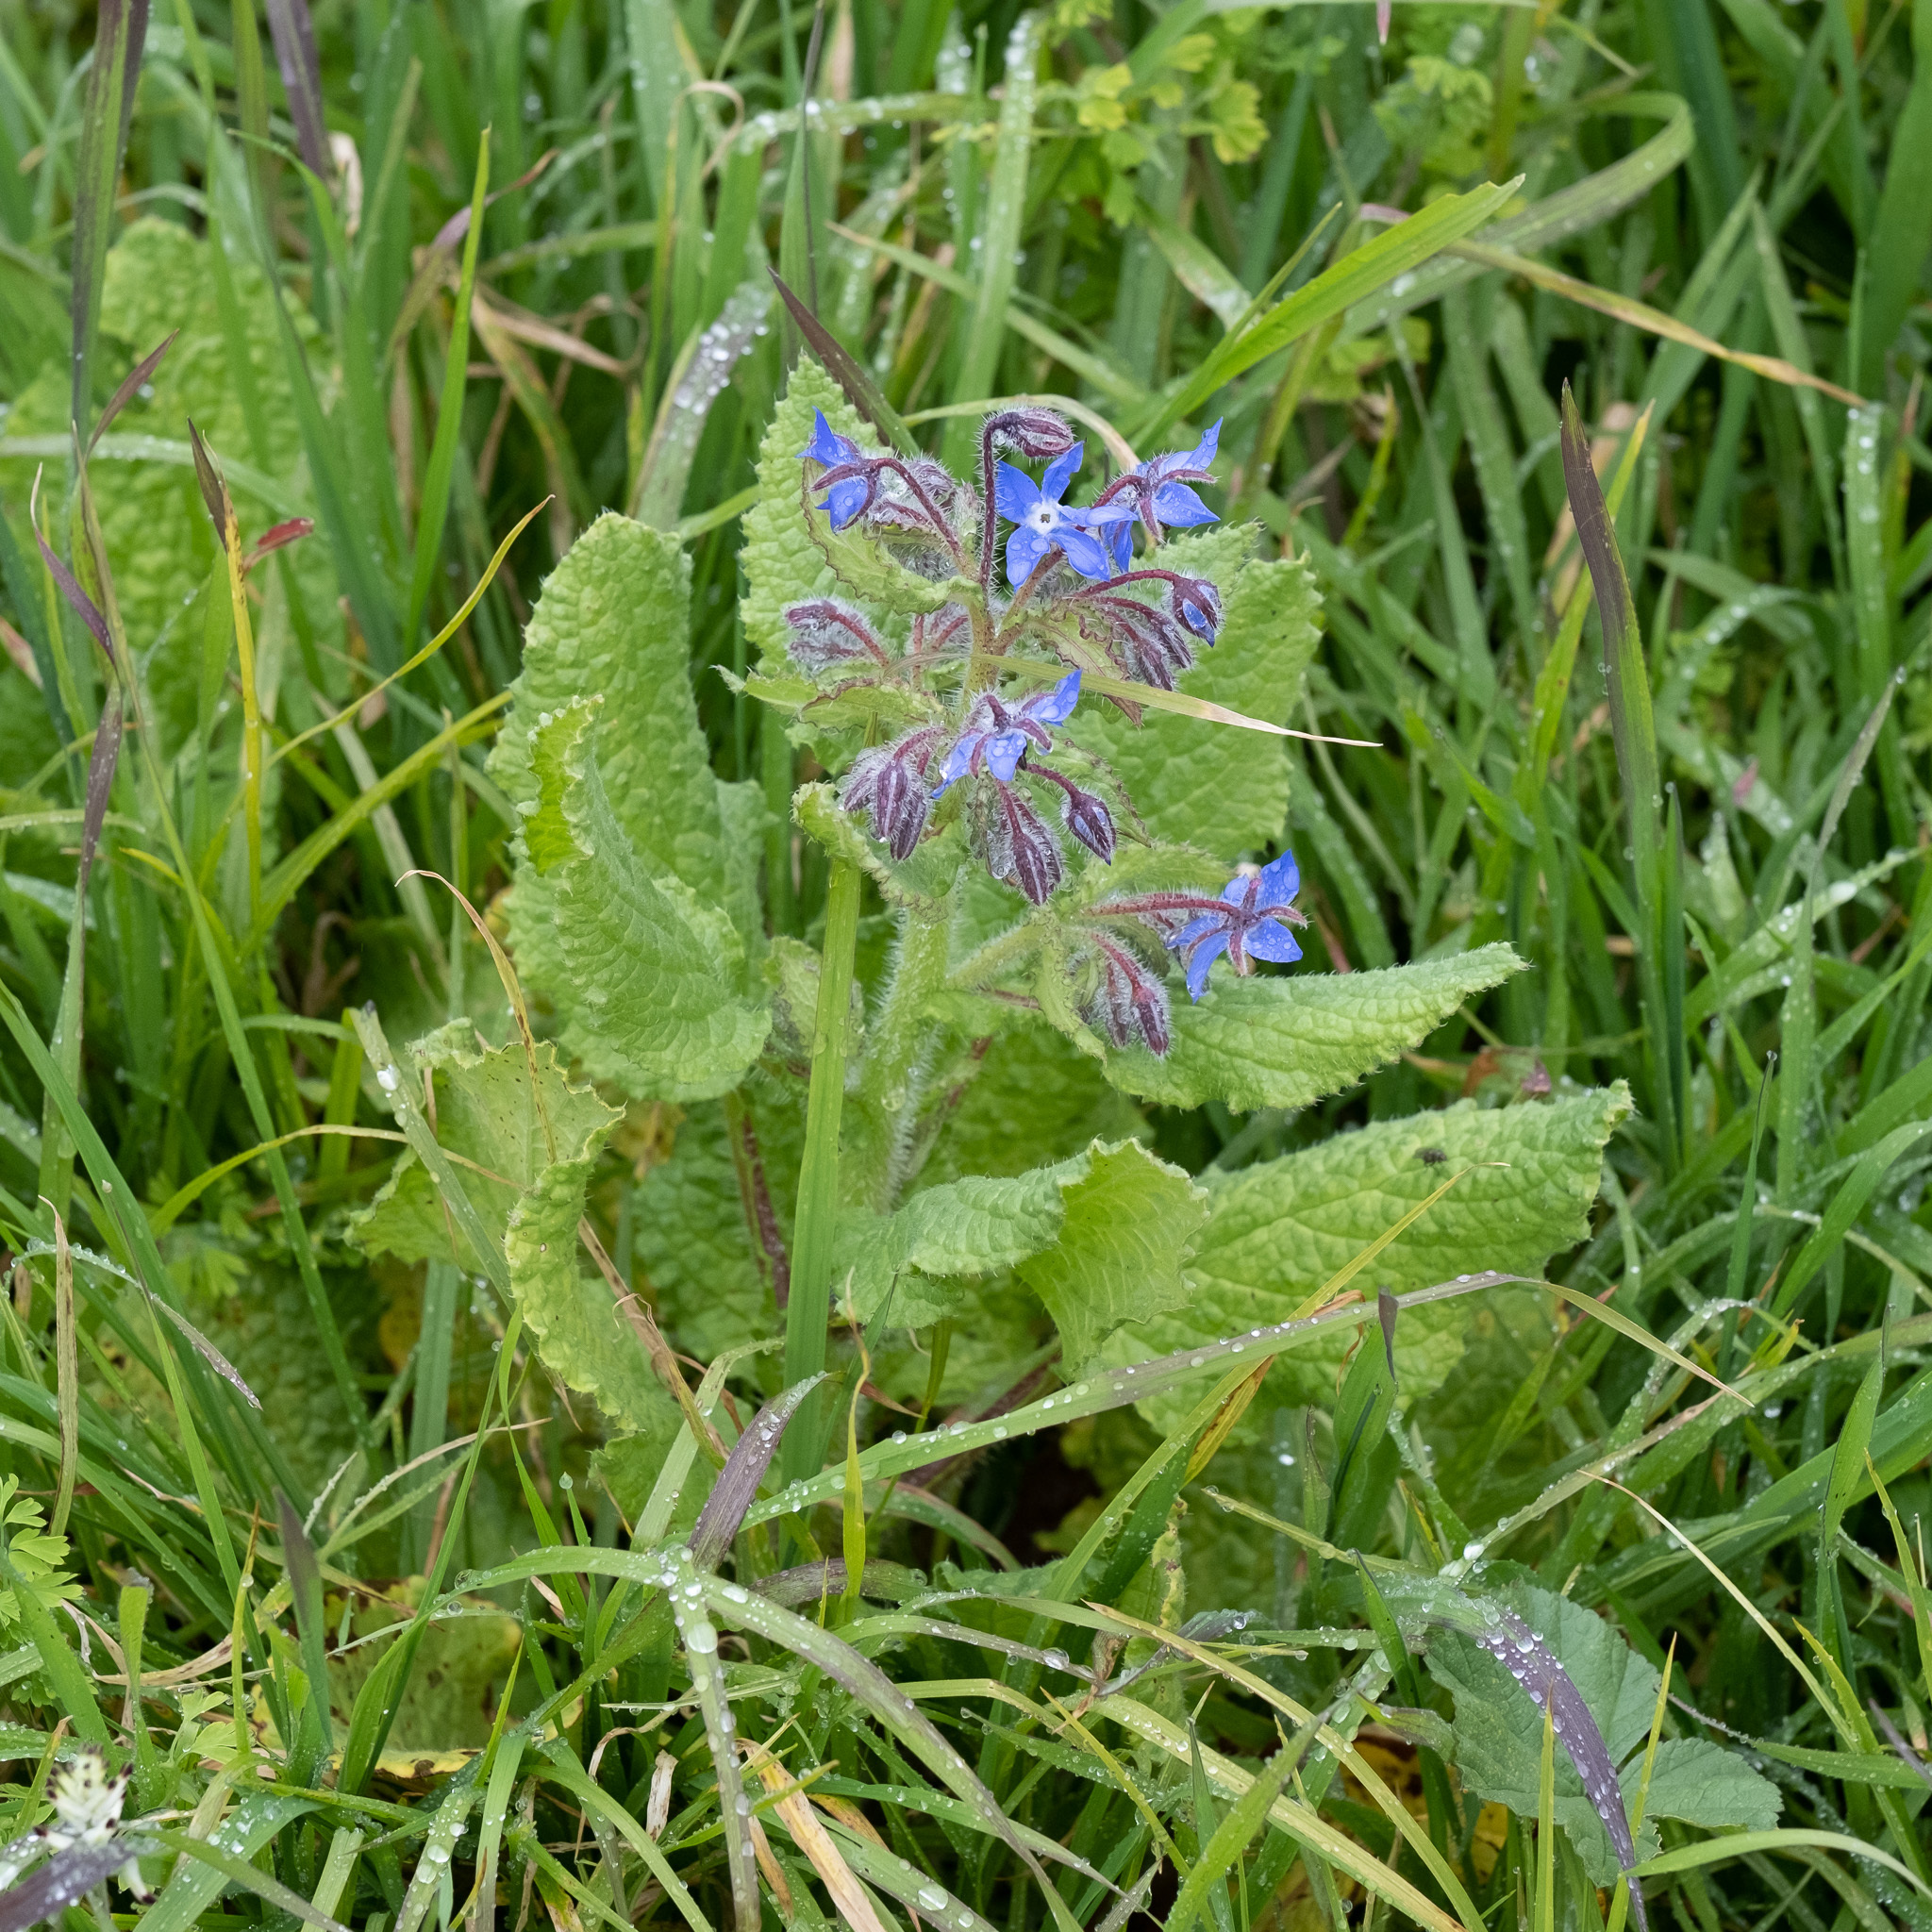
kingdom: Plantae
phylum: Tracheophyta
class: Magnoliopsida
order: Boraginales
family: Boraginaceae
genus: Borago
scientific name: Borago officinalis
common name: Borage
